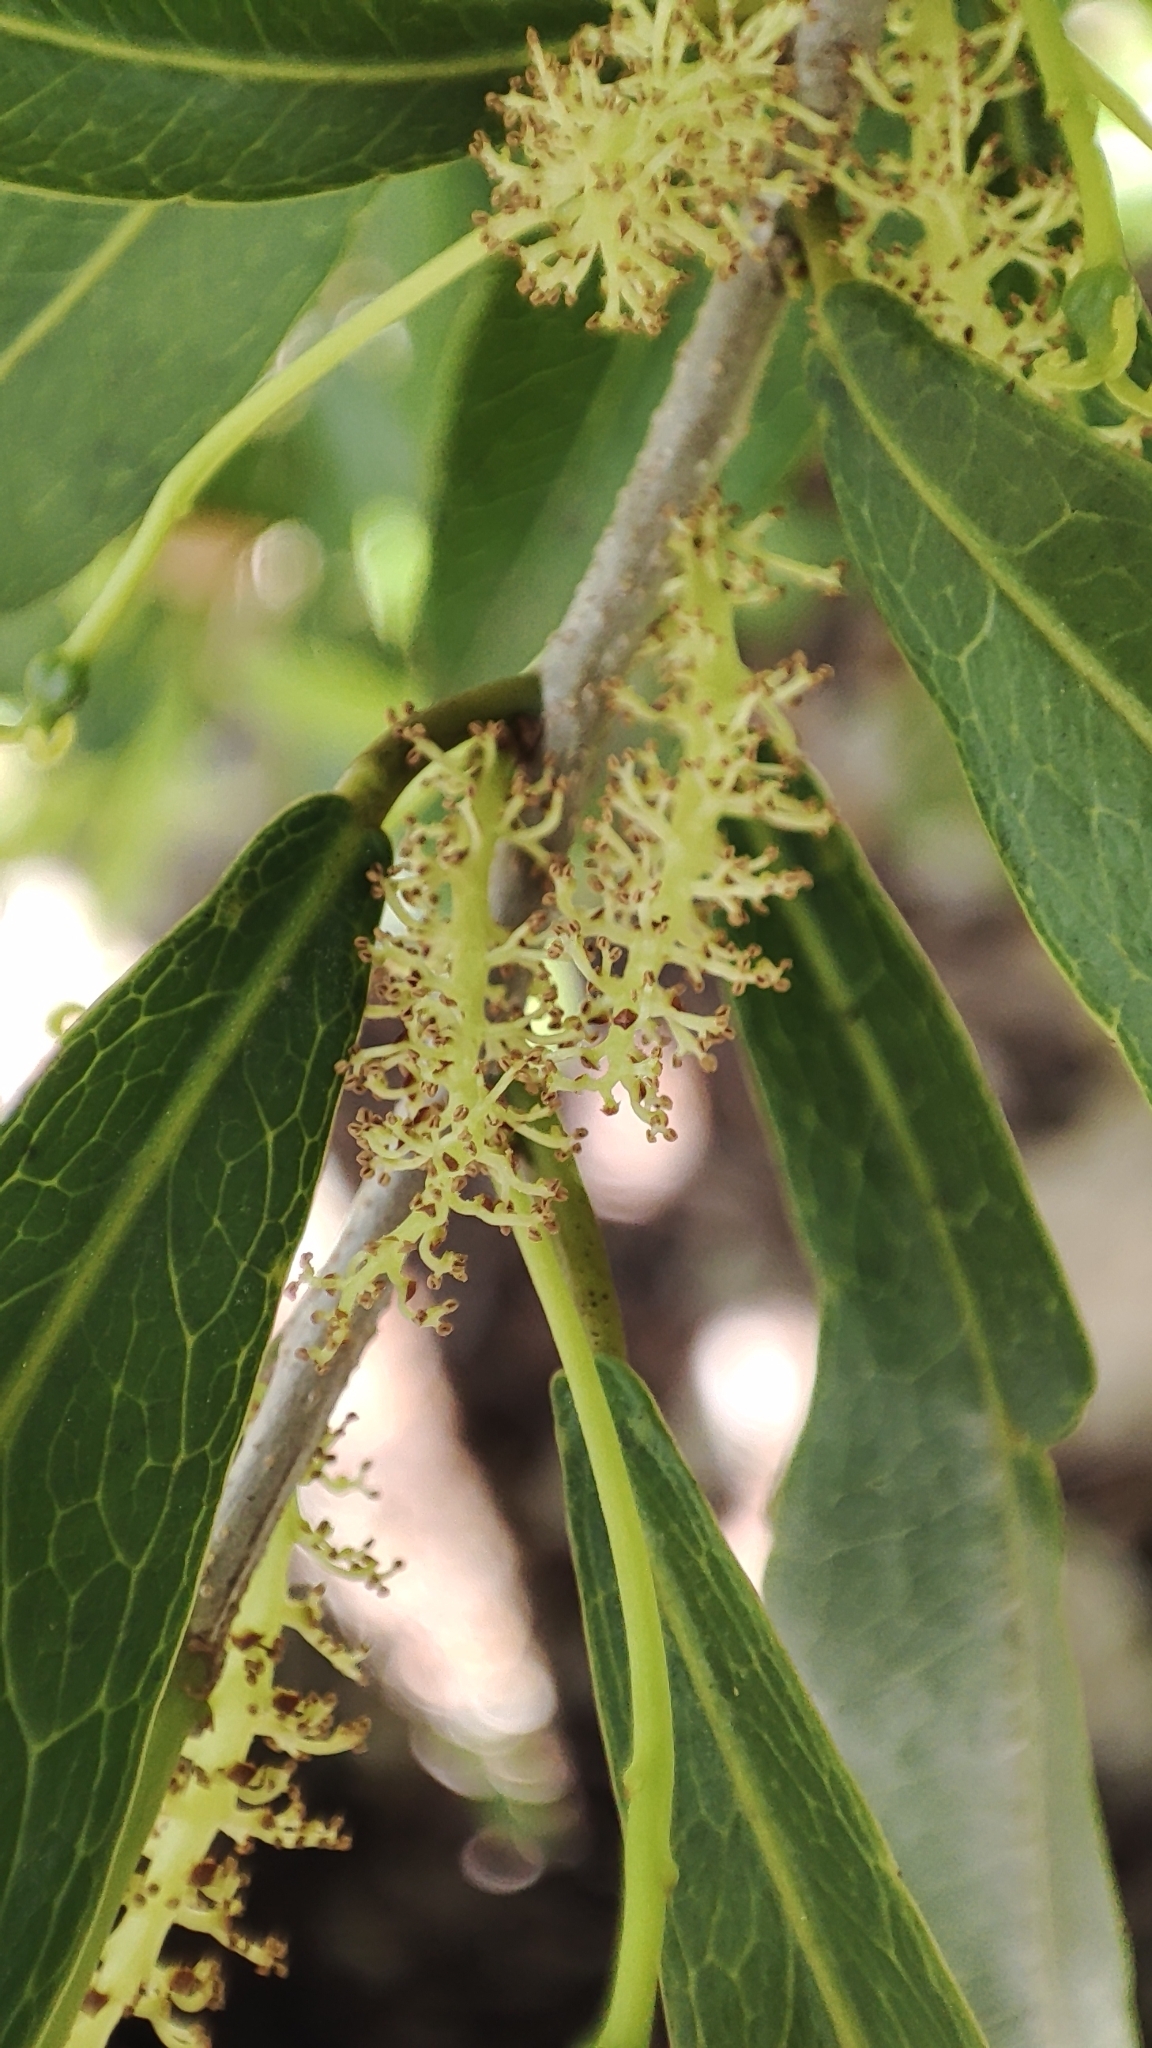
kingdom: Plantae
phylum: Tracheophyta
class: Magnoliopsida
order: Malpighiales
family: Euphorbiaceae
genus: Gymnanthes
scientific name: Gymnanthes lucida
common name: Oysterwood
